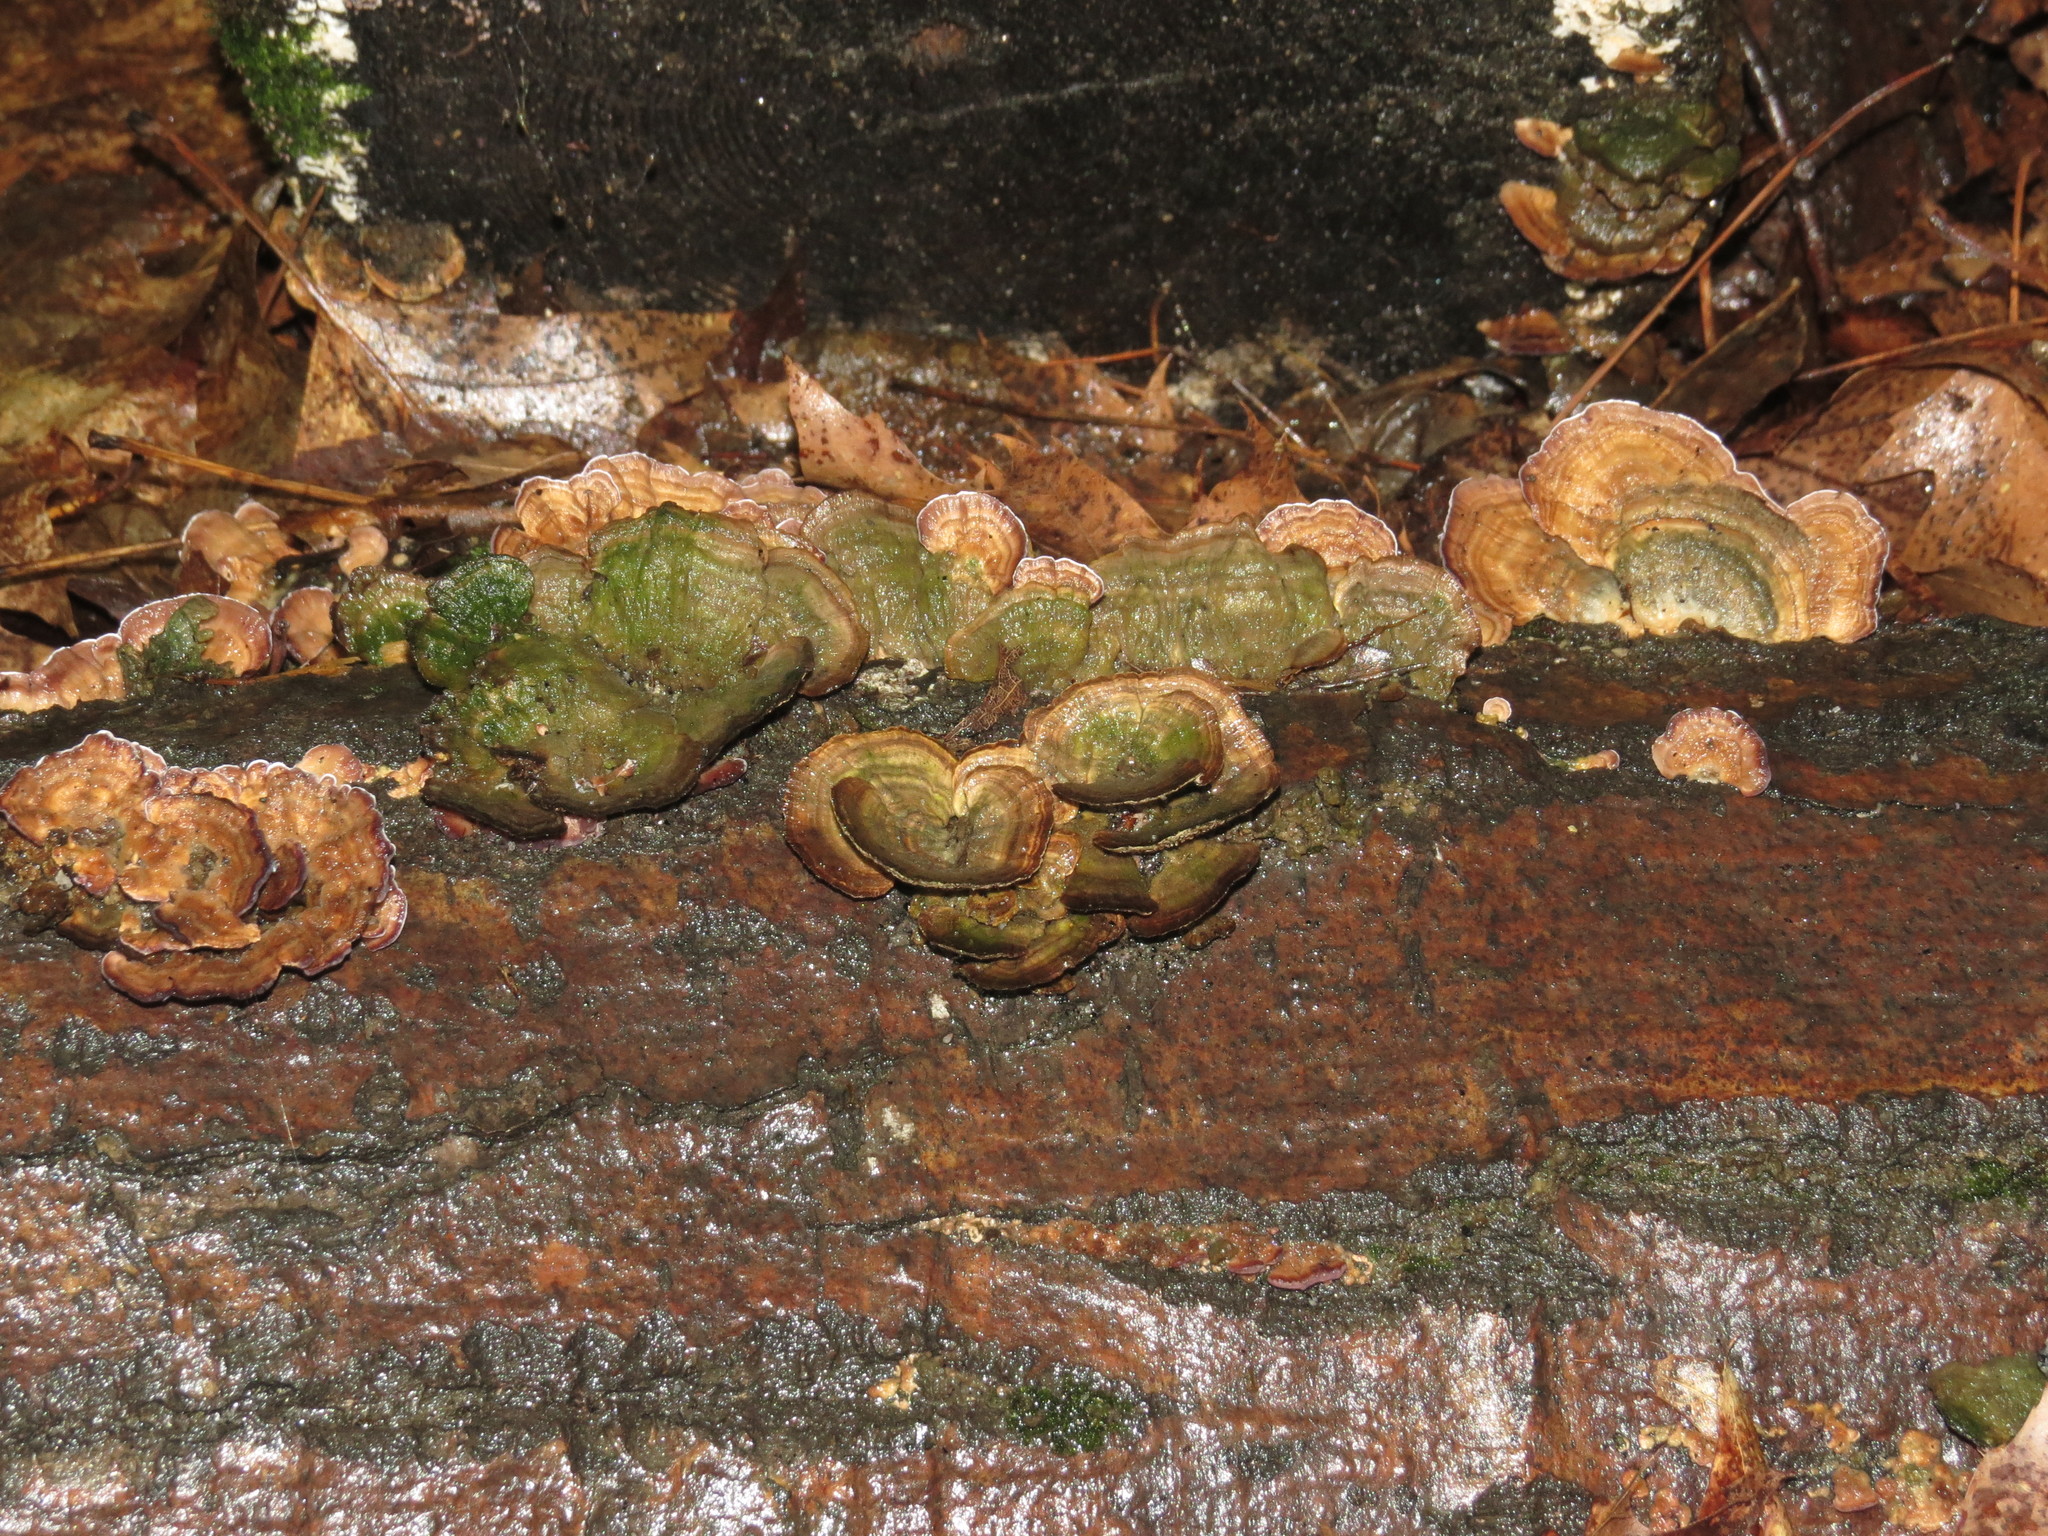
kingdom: Fungi
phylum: Basidiomycota
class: Agaricomycetes
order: Polyporales
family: Polyporaceae
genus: Trametes
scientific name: Trametes versicolor
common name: Turkeytail
